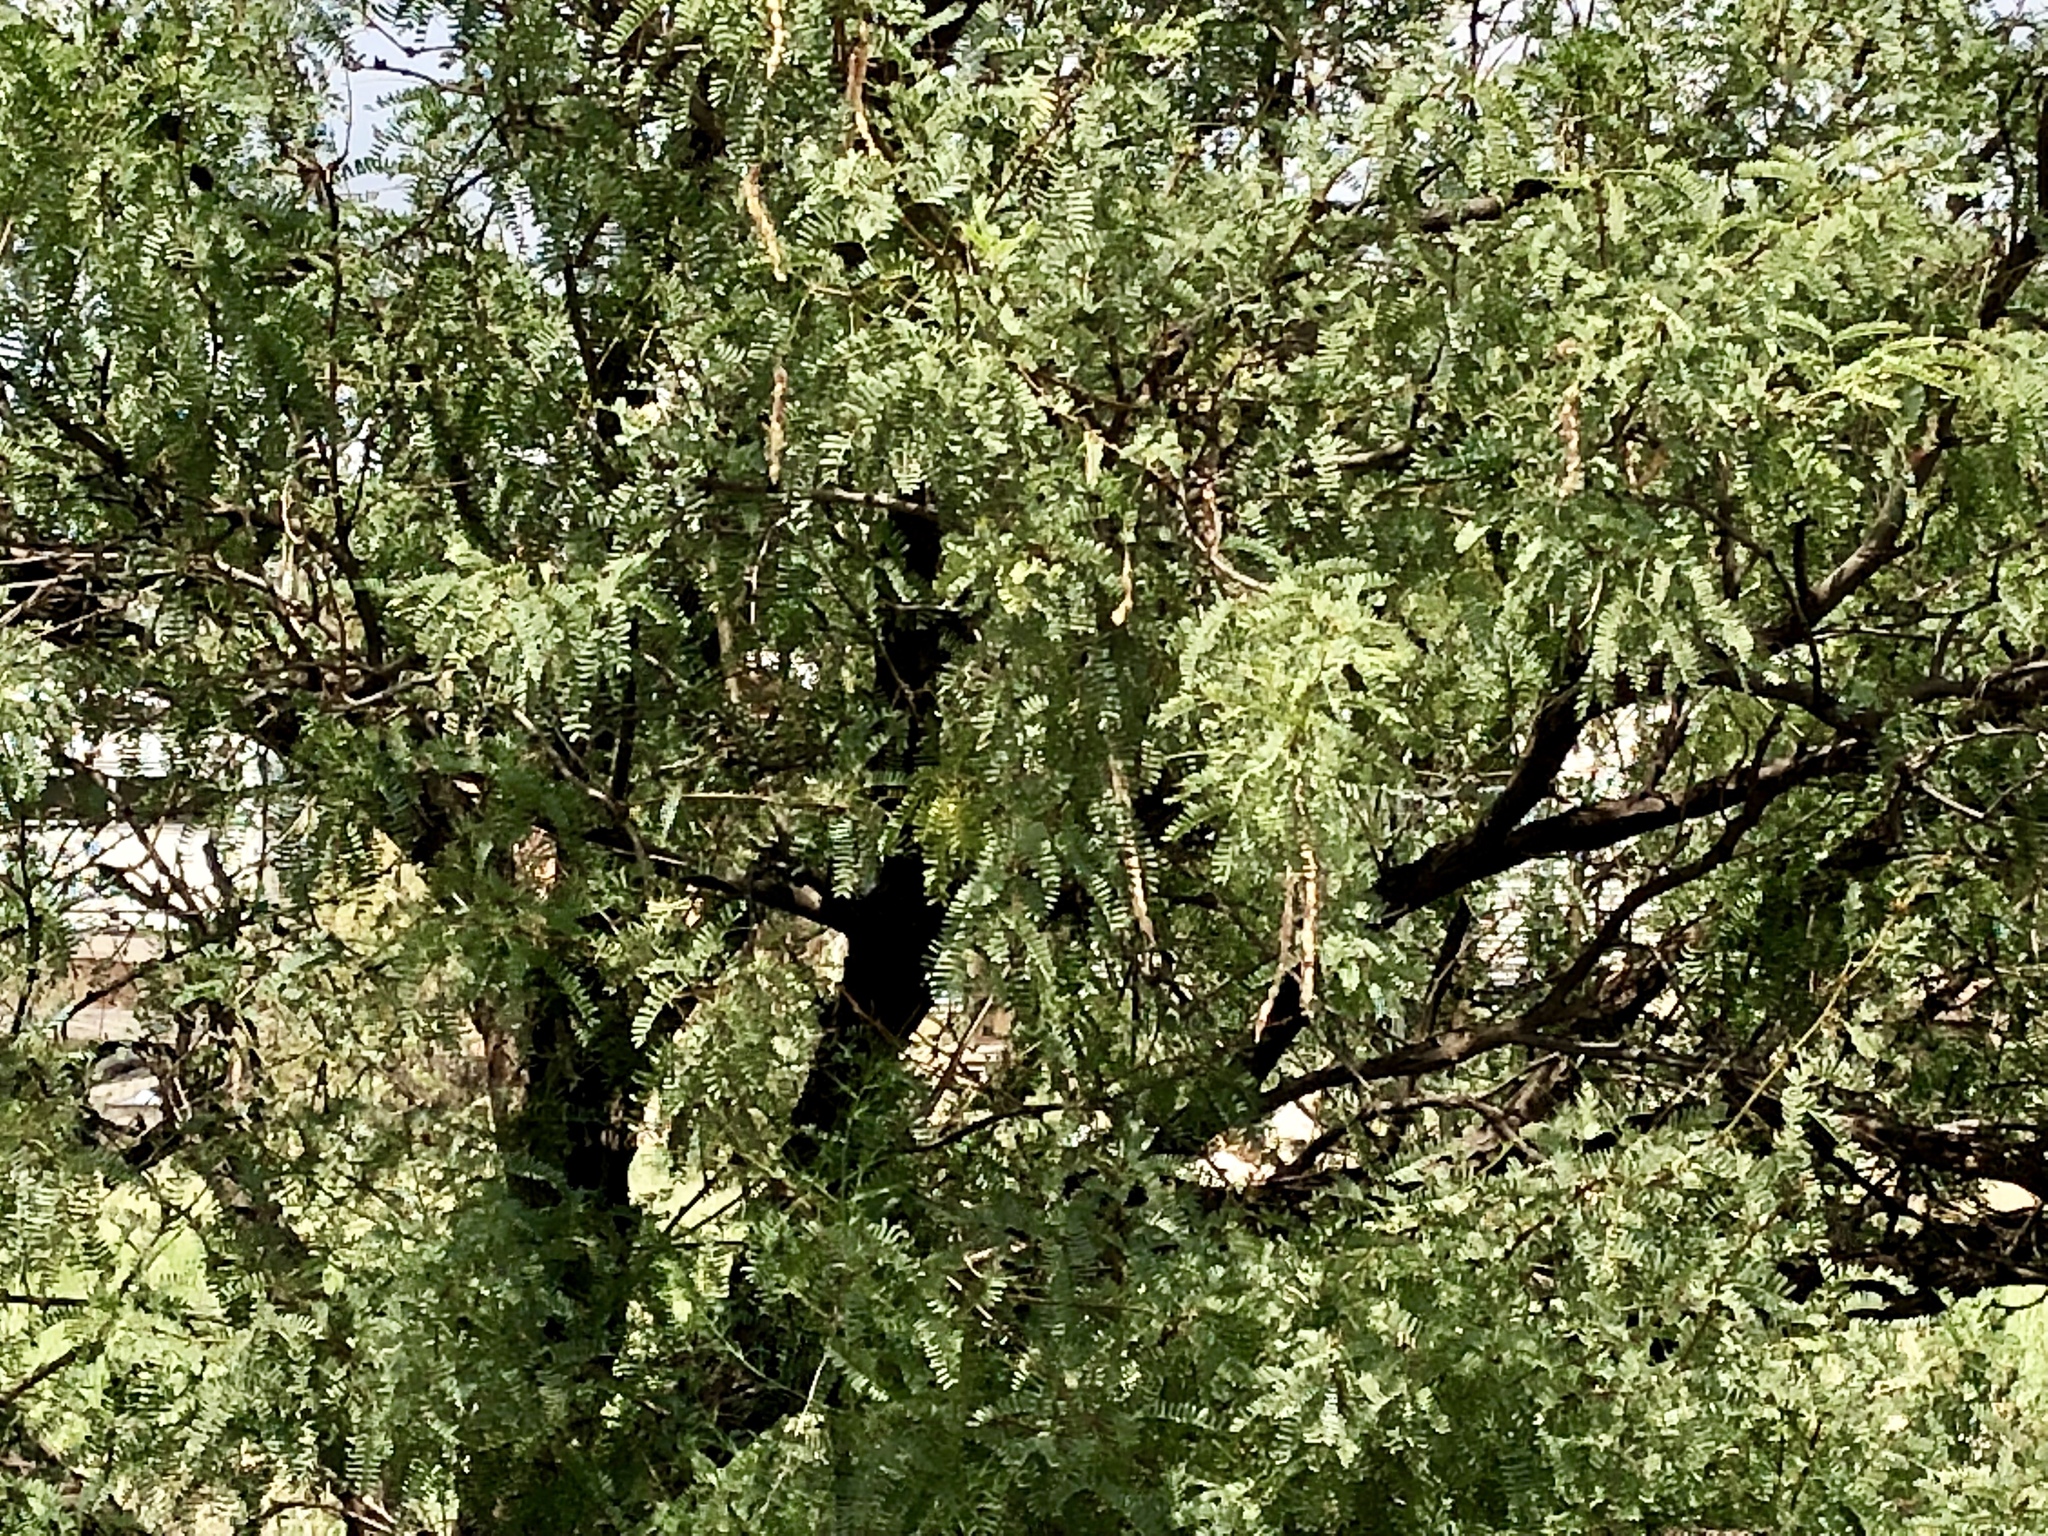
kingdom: Plantae
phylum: Tracheophyta
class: Magnoliopsida
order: Fabales
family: Fabaceae
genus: Prosopis
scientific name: Prosopis glandulosa
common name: Honey mesquite
